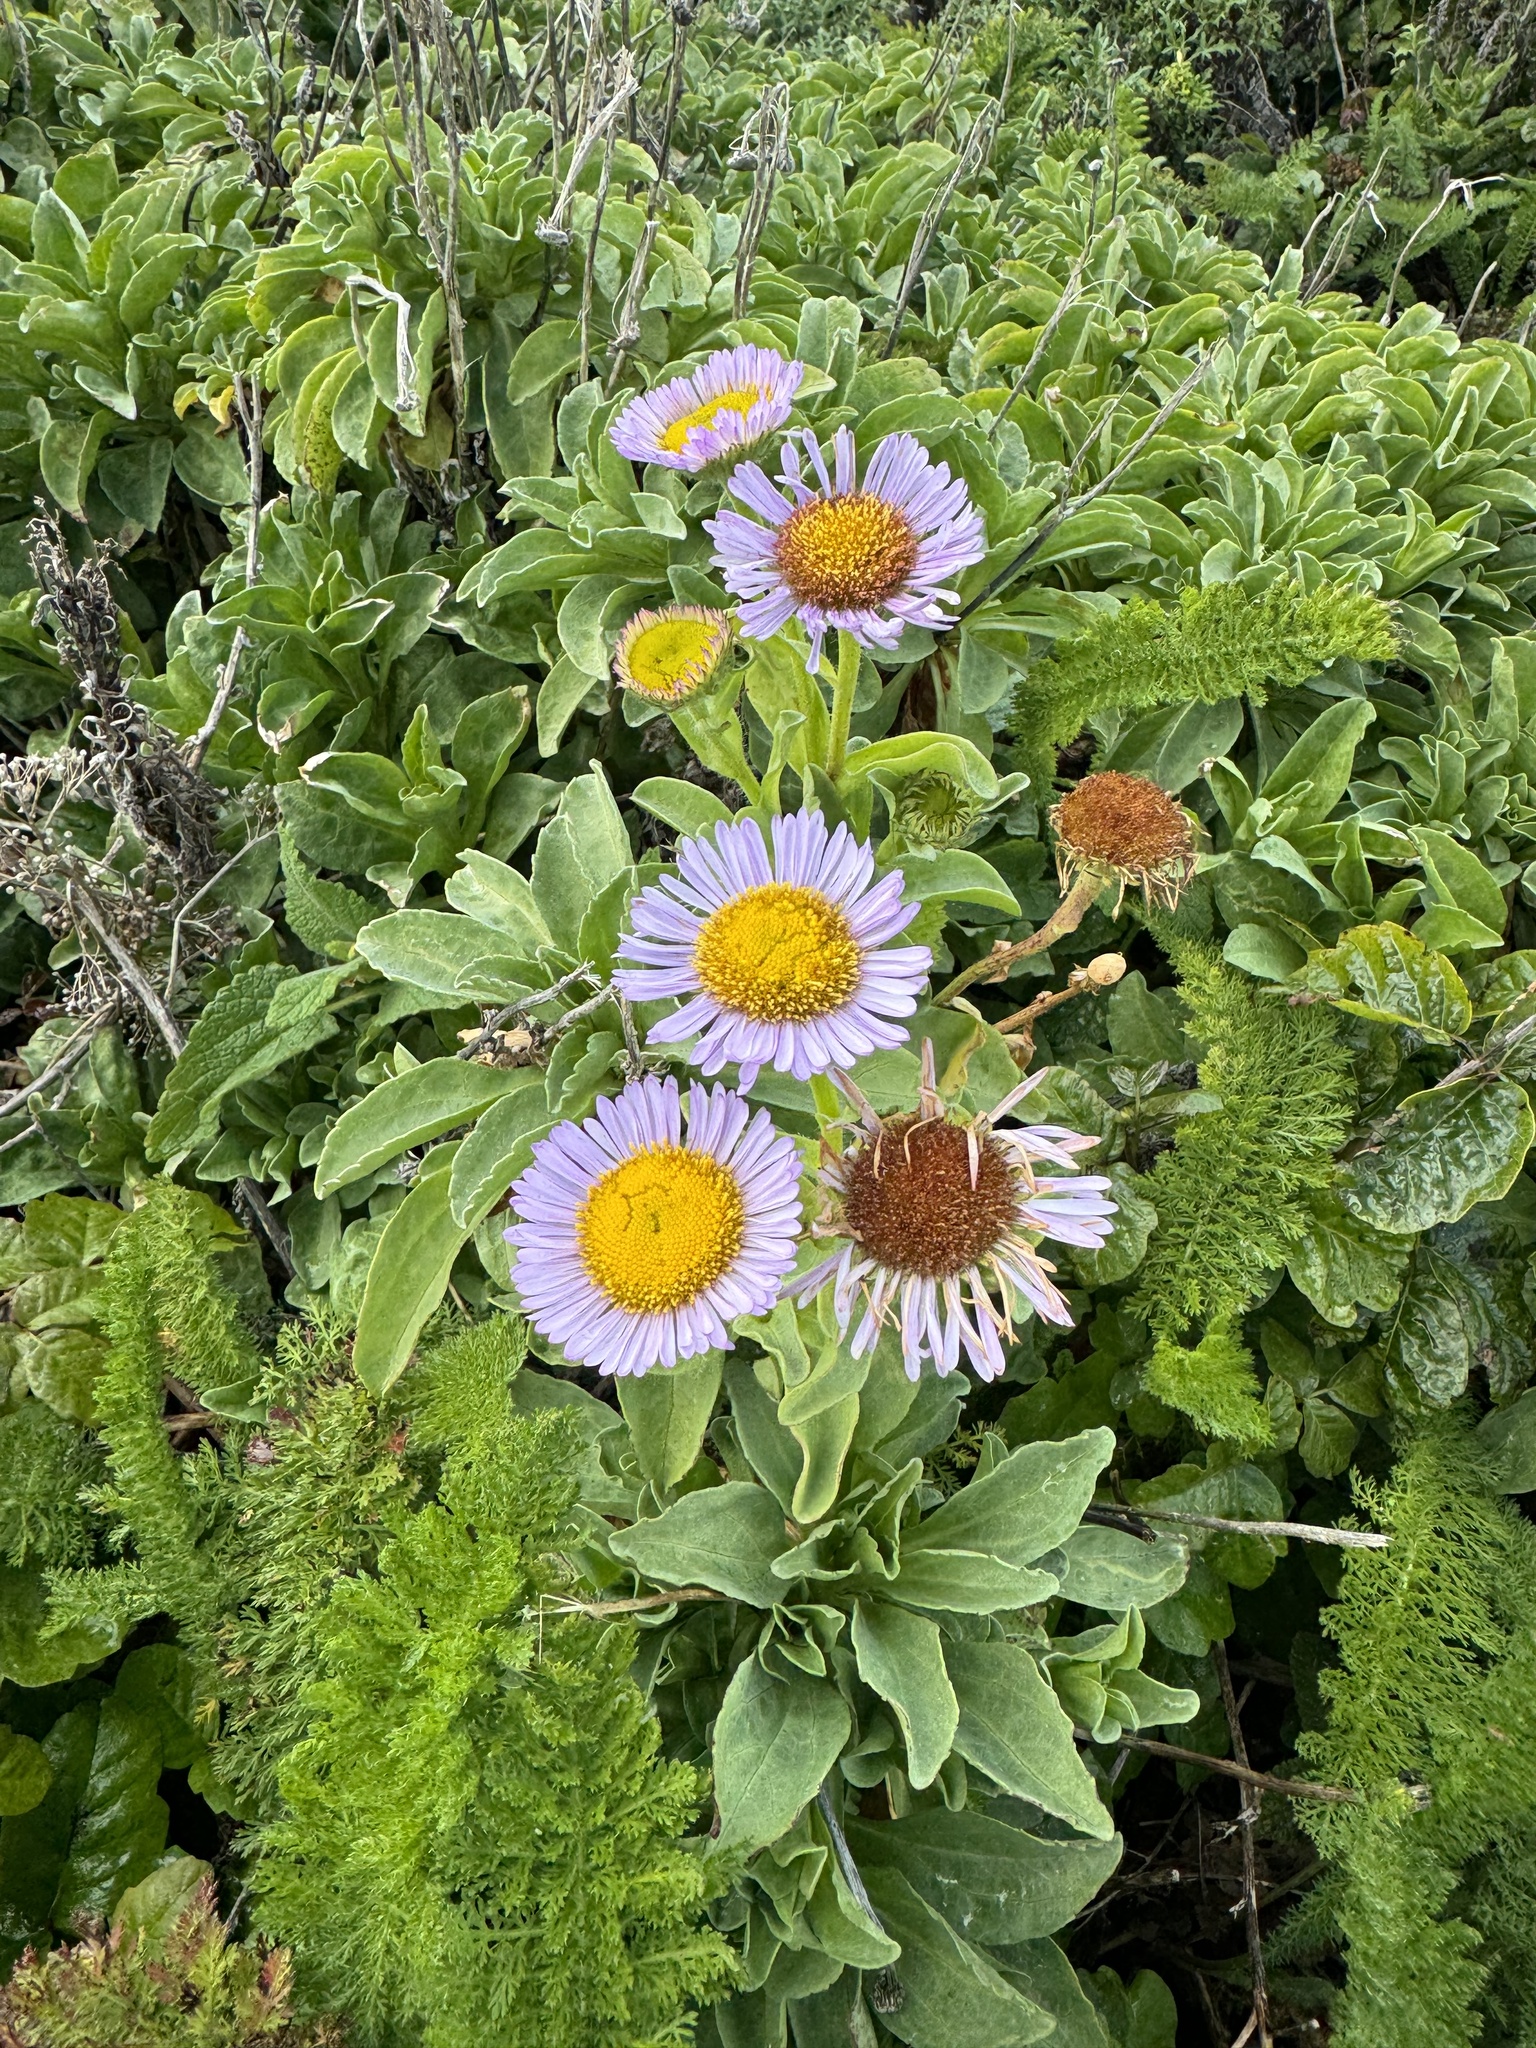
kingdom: Plantae
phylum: Tracheophyta
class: Magnoliopsida
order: Asterales
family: Asteraceae
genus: Erigeron
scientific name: Erigeron glaucus
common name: Seaside daisy
